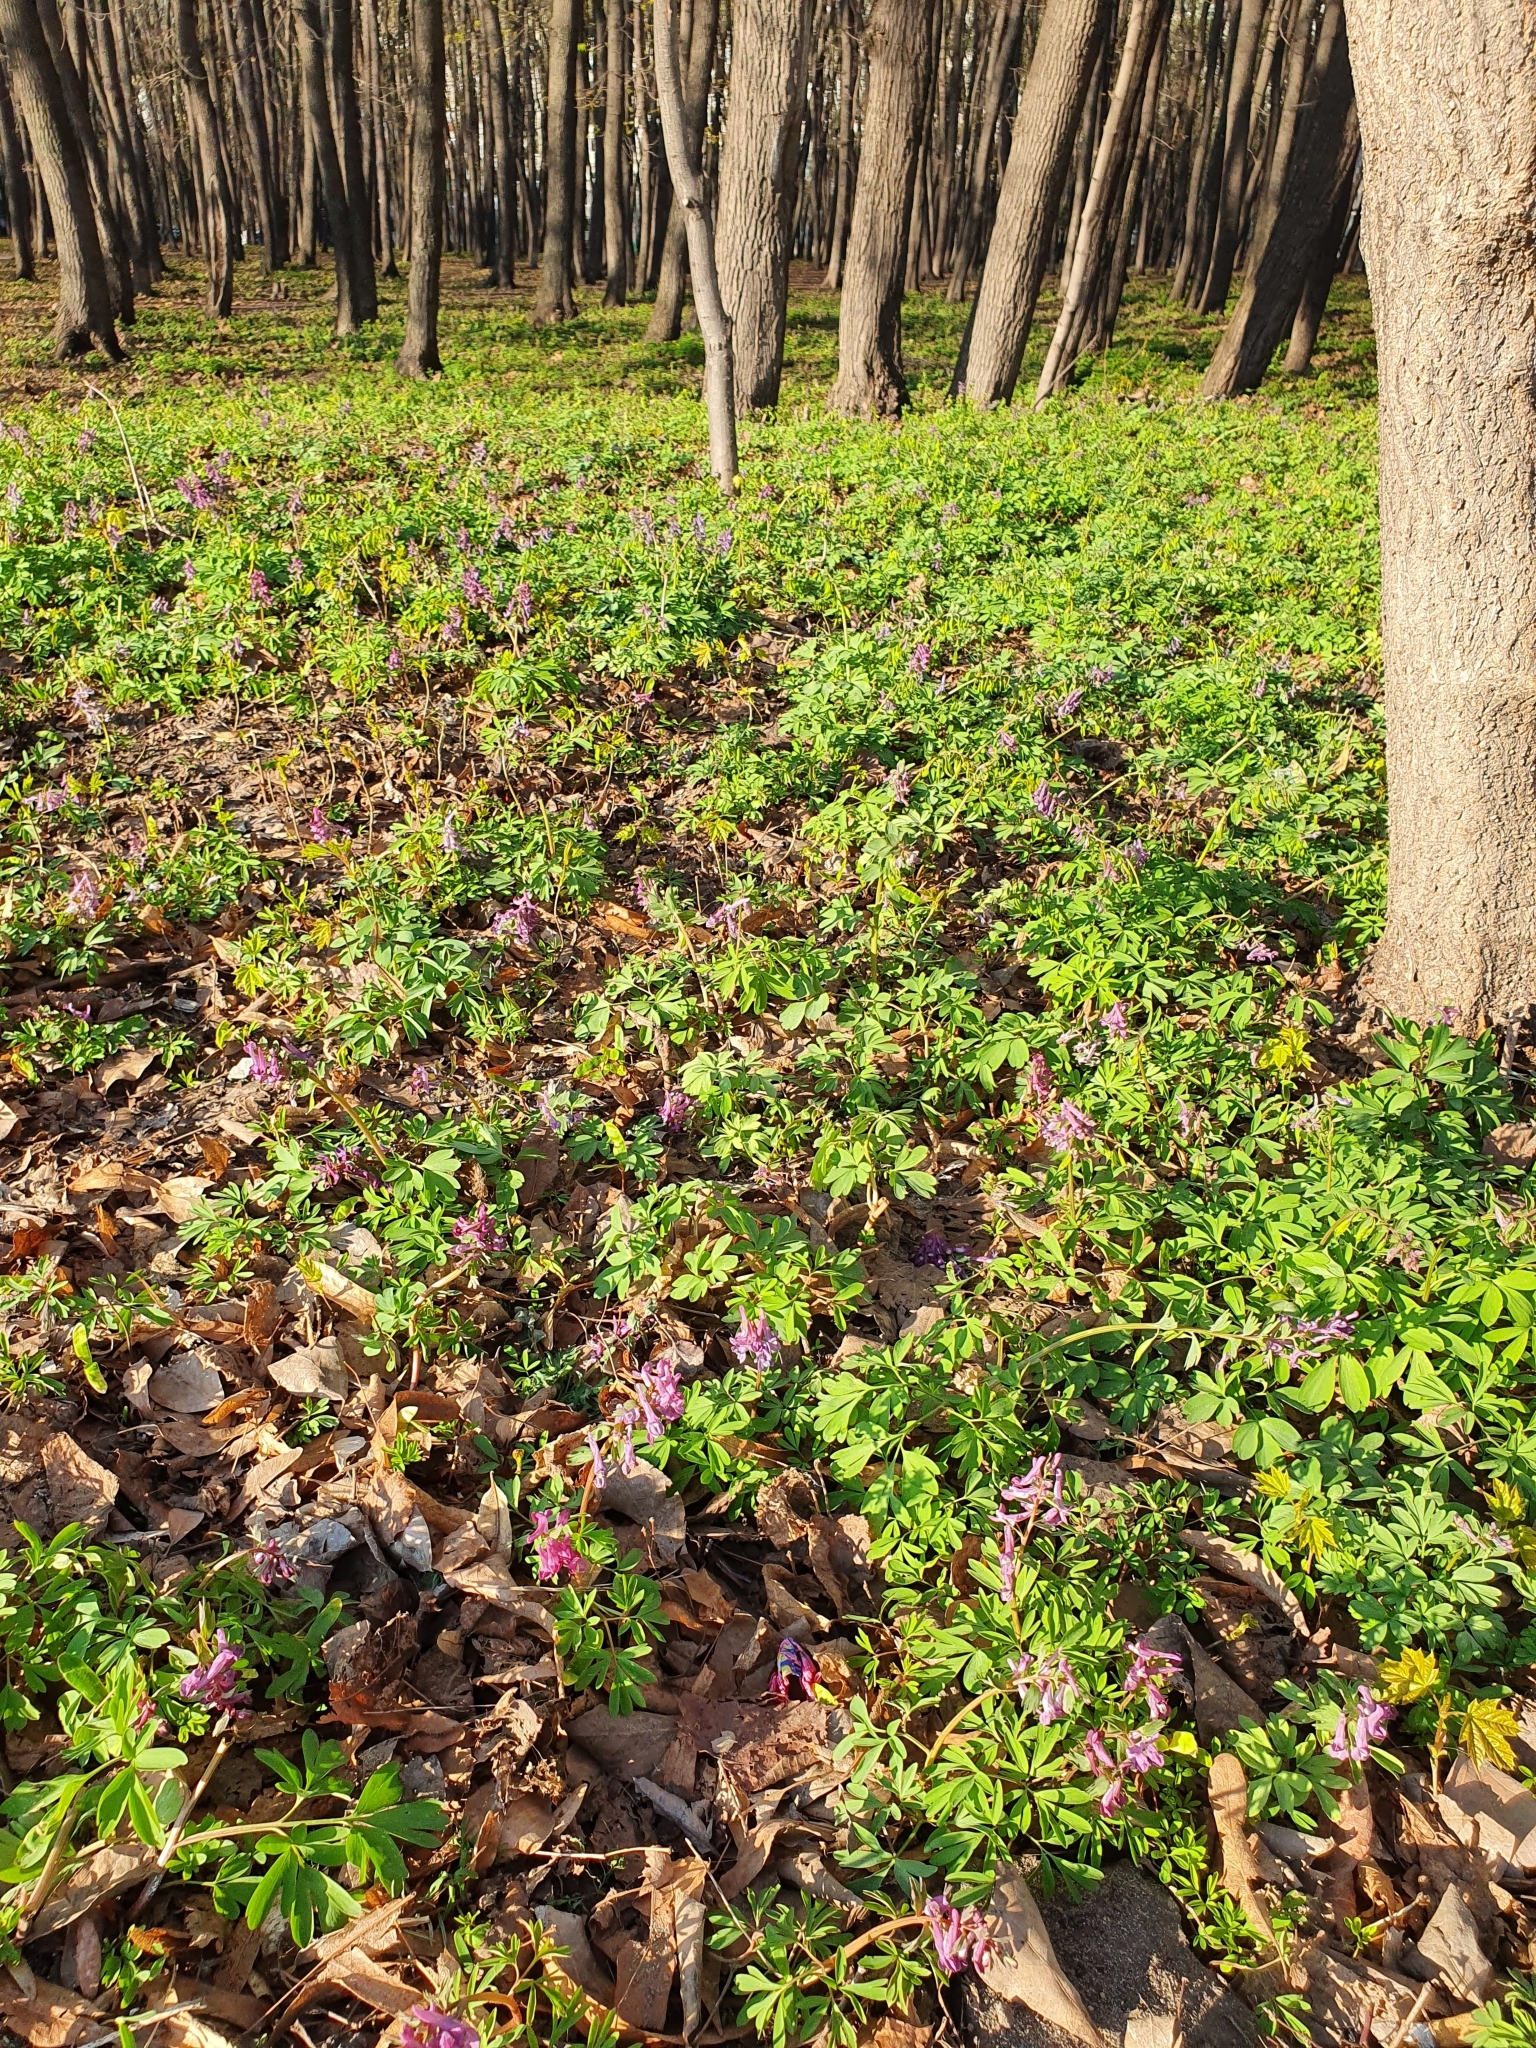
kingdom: Plantae
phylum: Tracheophyta
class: Magnoliopsida
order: Ranunculales
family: Papaveraceae
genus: Corydalis
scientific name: Corydalis solida
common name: Bird-in-a-bush
